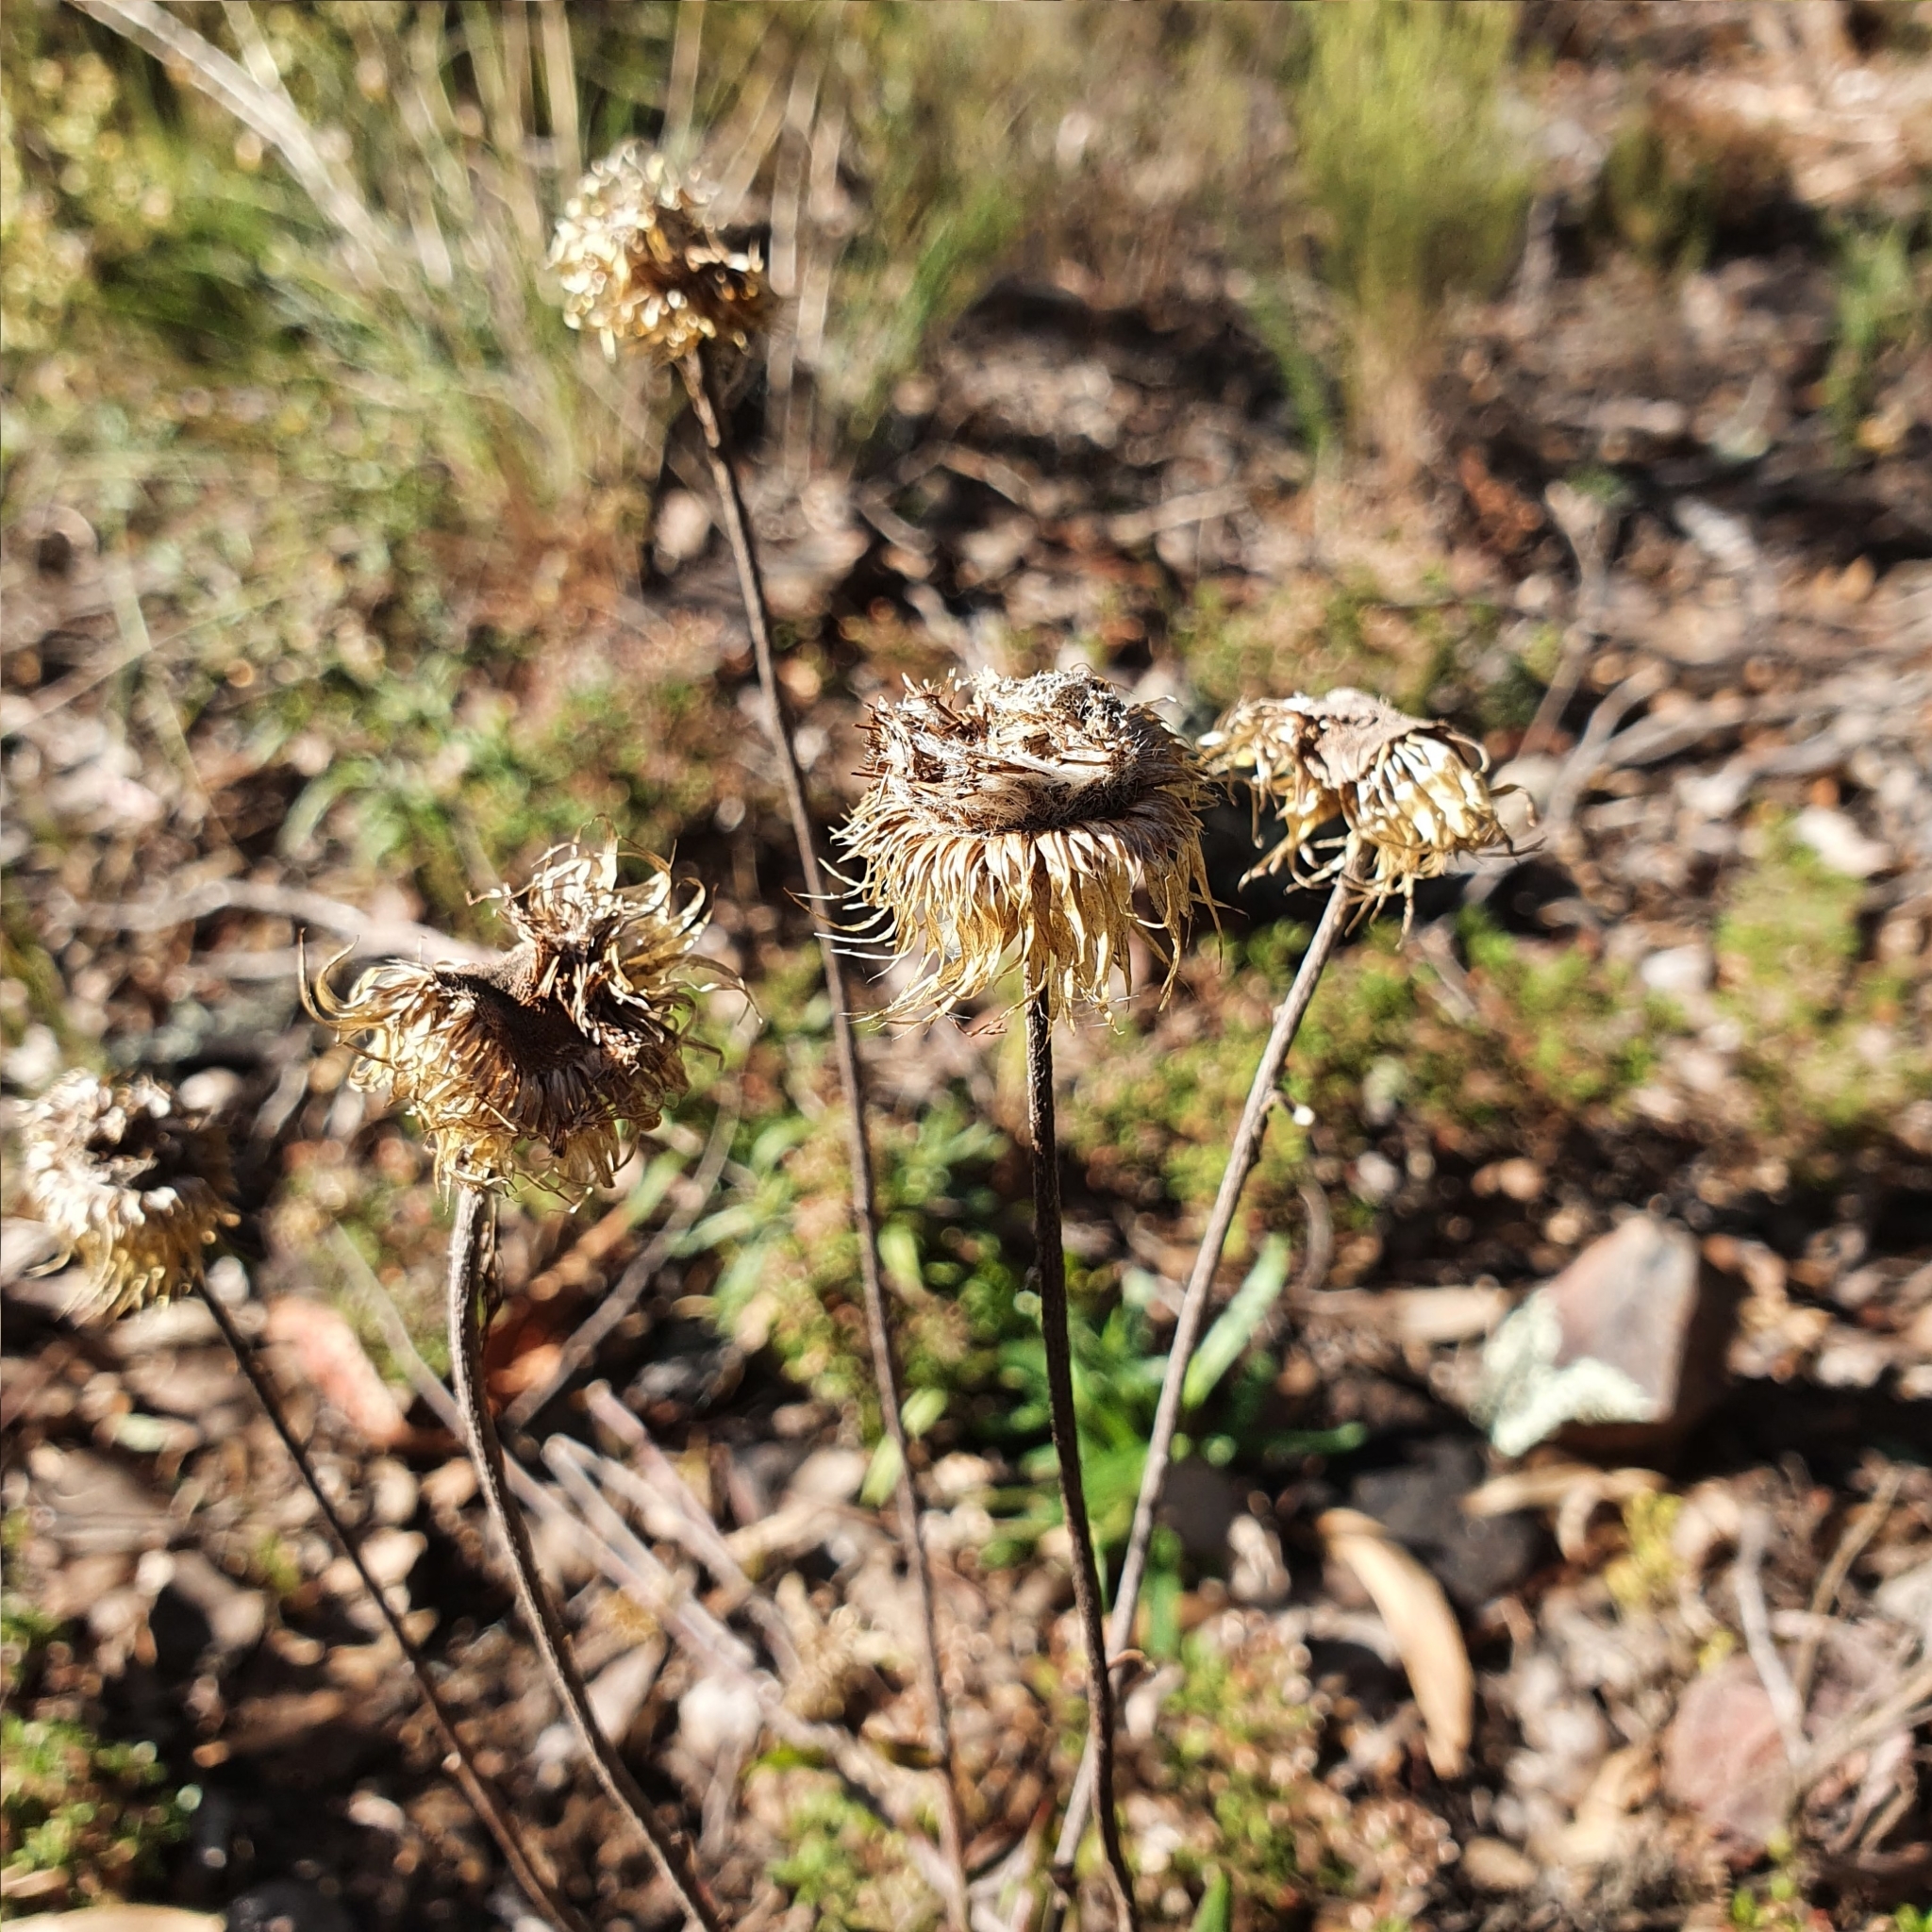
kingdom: Plantae
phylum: Tracheophyta
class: Magnoliopsida
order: Asterales
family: Asteraceae
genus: Coronidium
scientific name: Coronidium oxylepis
